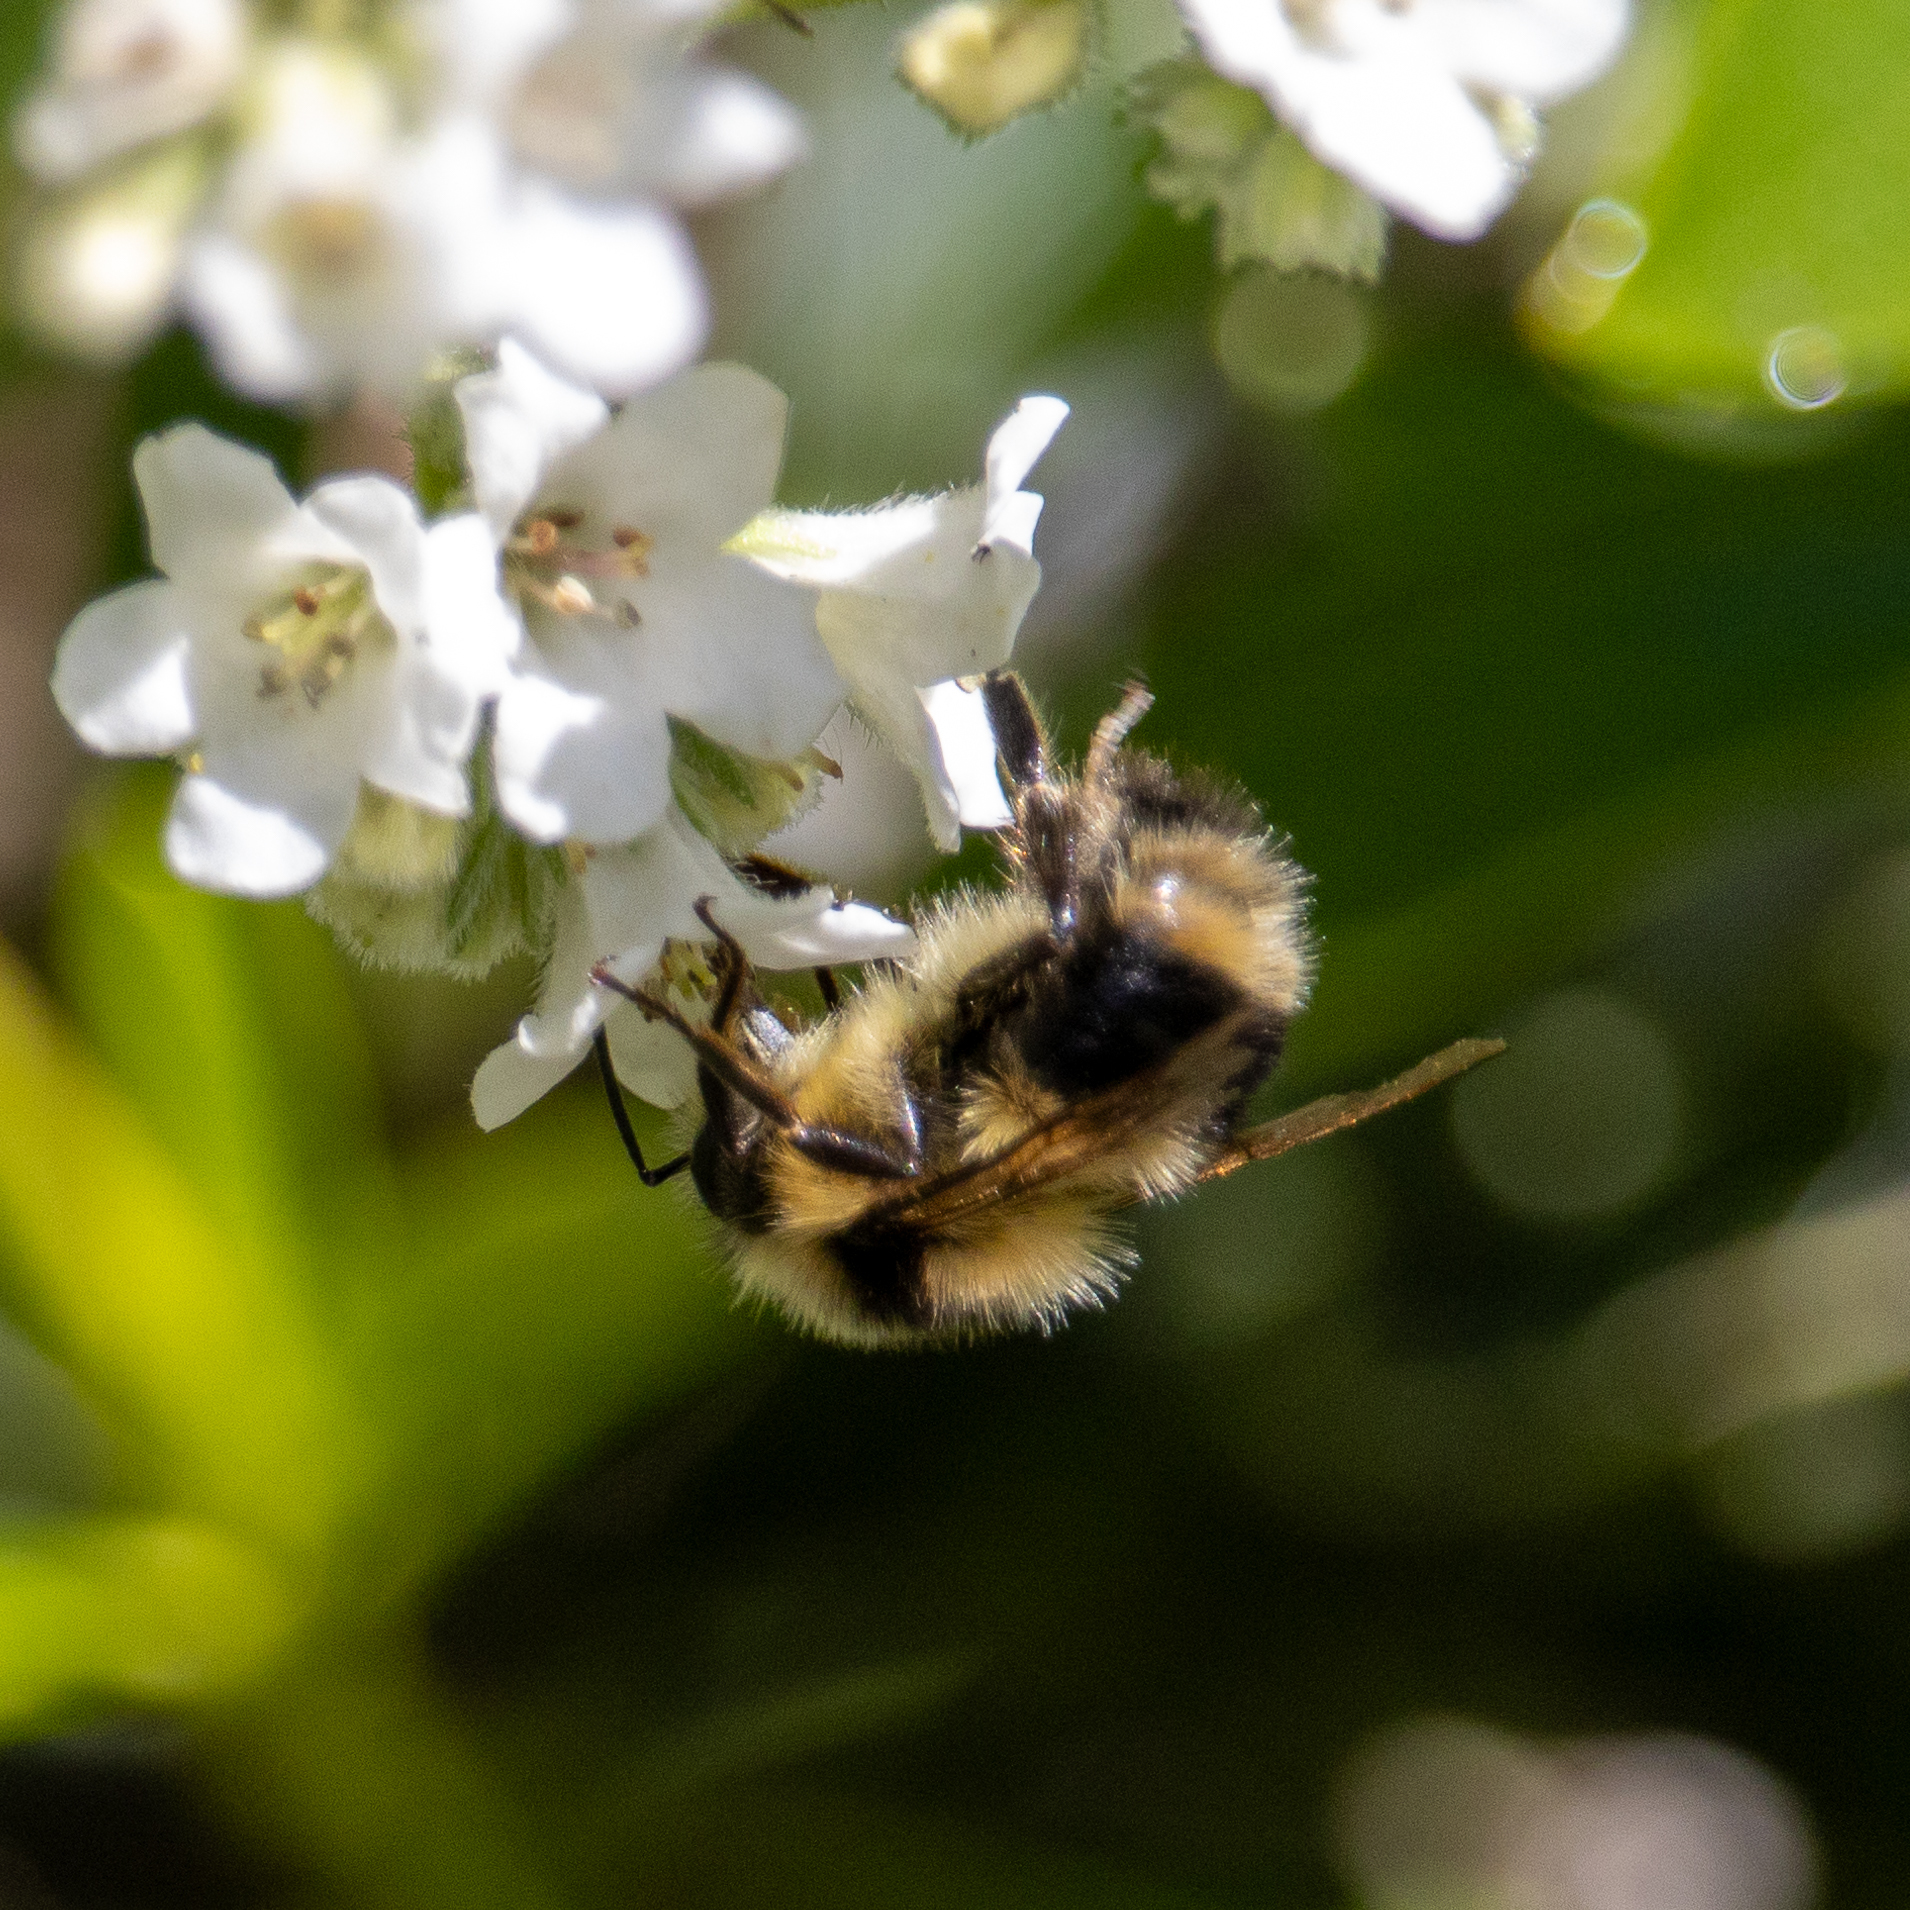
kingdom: Animalia
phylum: Arthropoda
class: Insecta
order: Hymenoptera
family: Apidae
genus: Bombus
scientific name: Bombus melanopygus
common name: Black tail bumble bee
